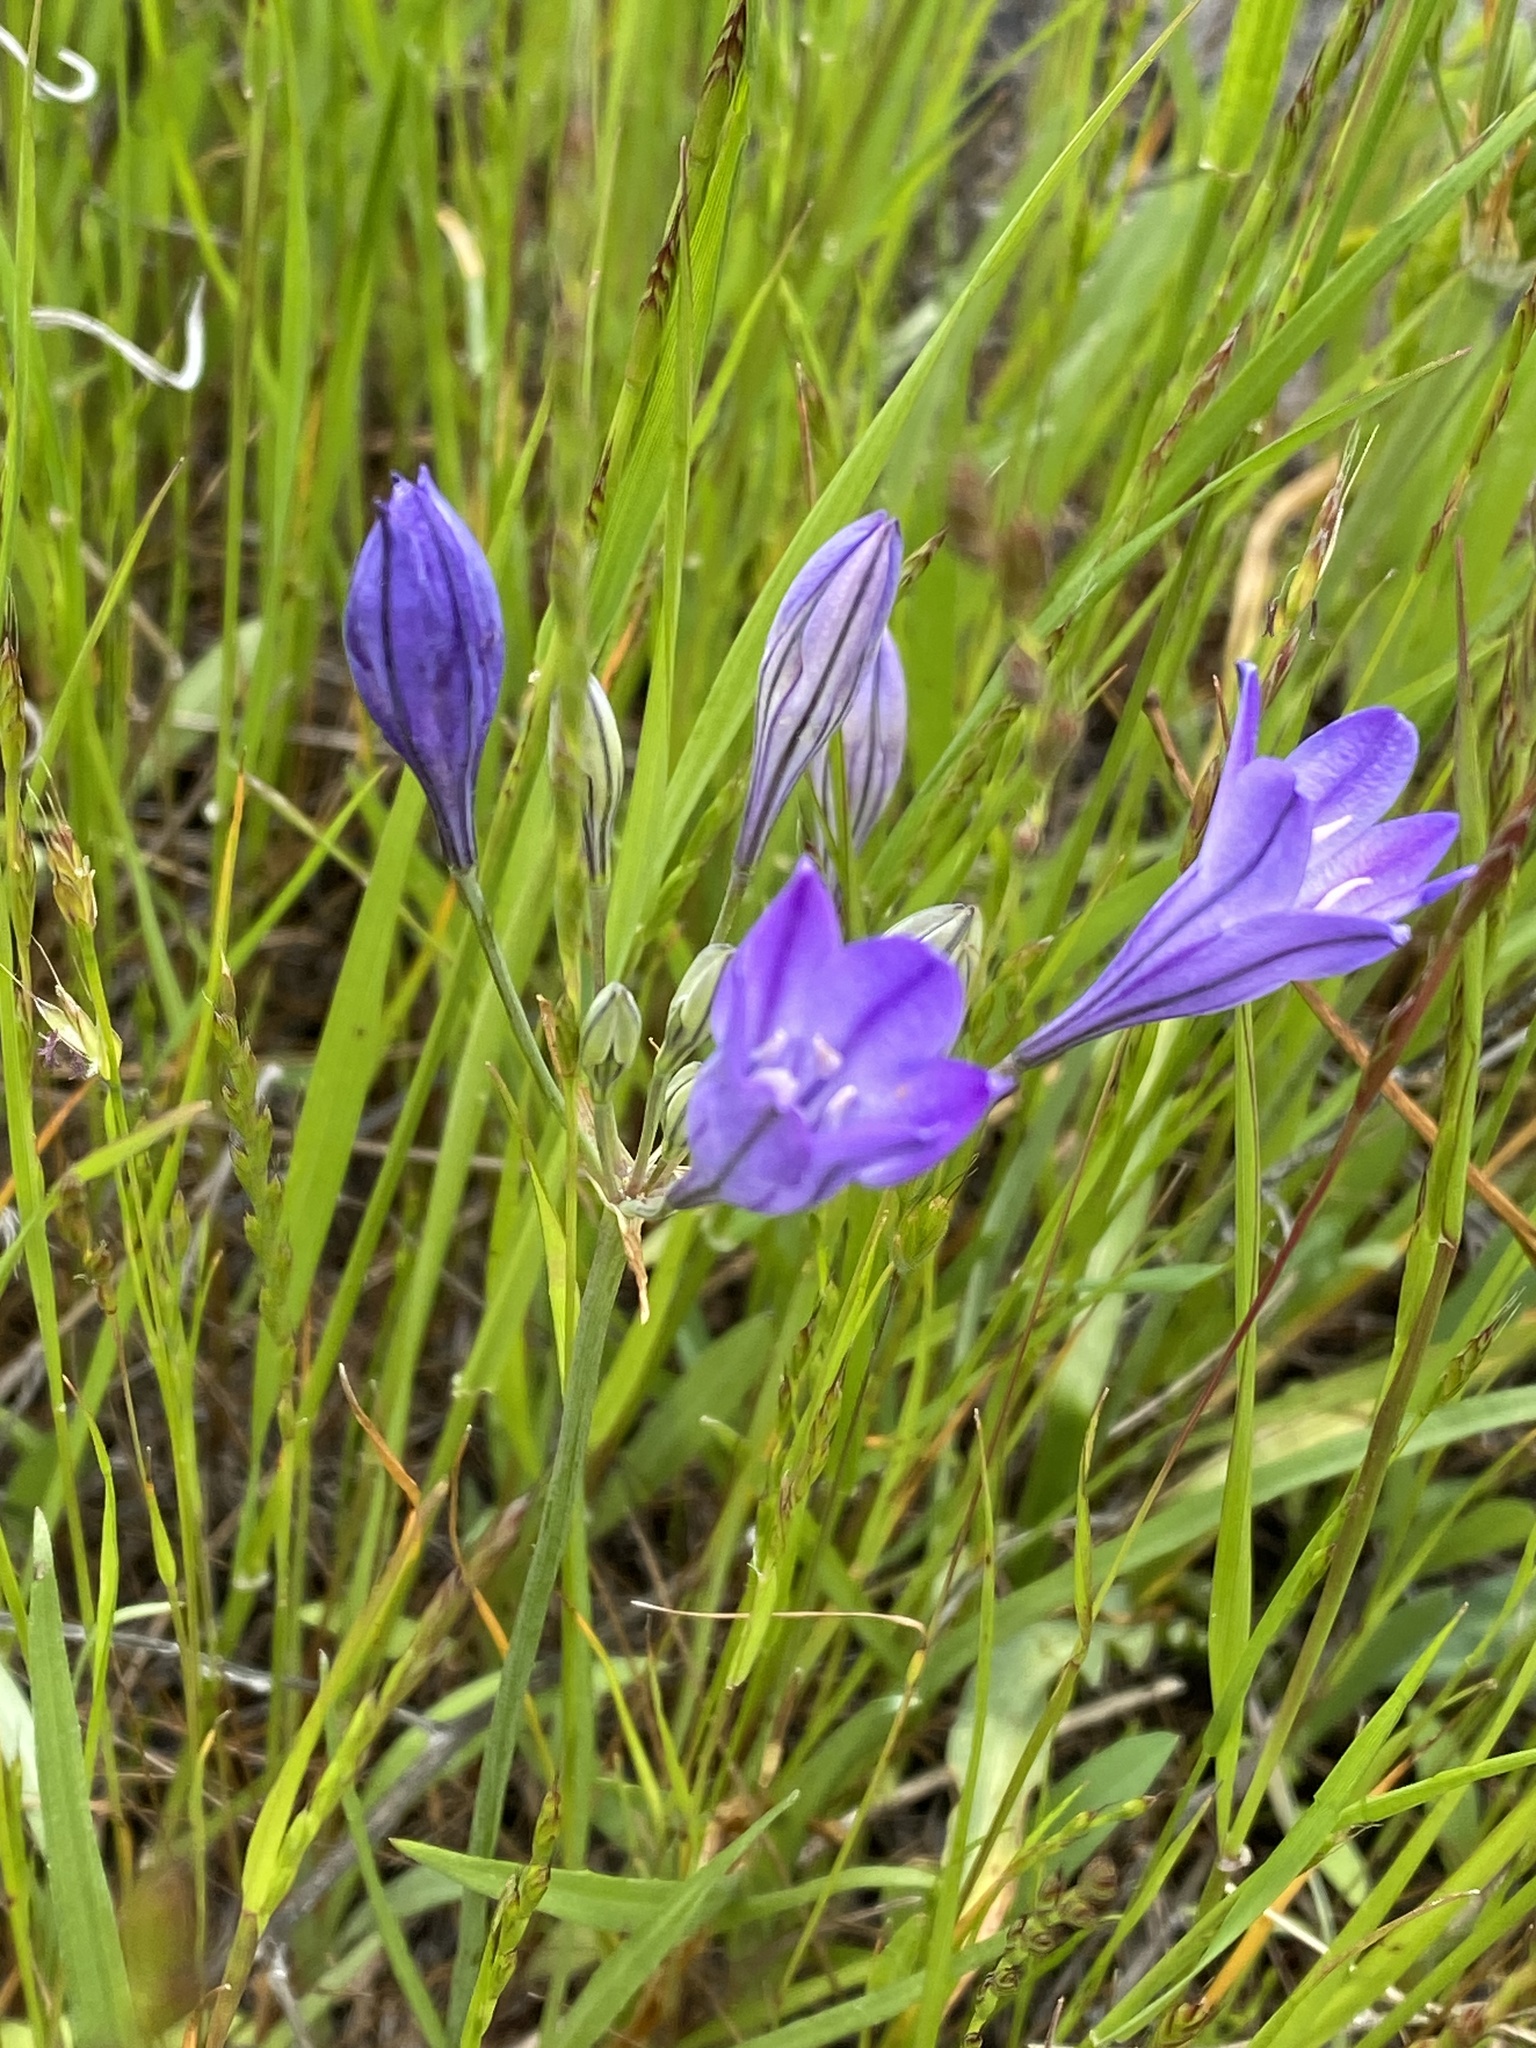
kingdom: Plantae
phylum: Tracheophyta
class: Liliopsida
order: Asparagales
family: Asparagaceae
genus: Triteleia
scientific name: Triteleia laxa
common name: Triplet-lily
